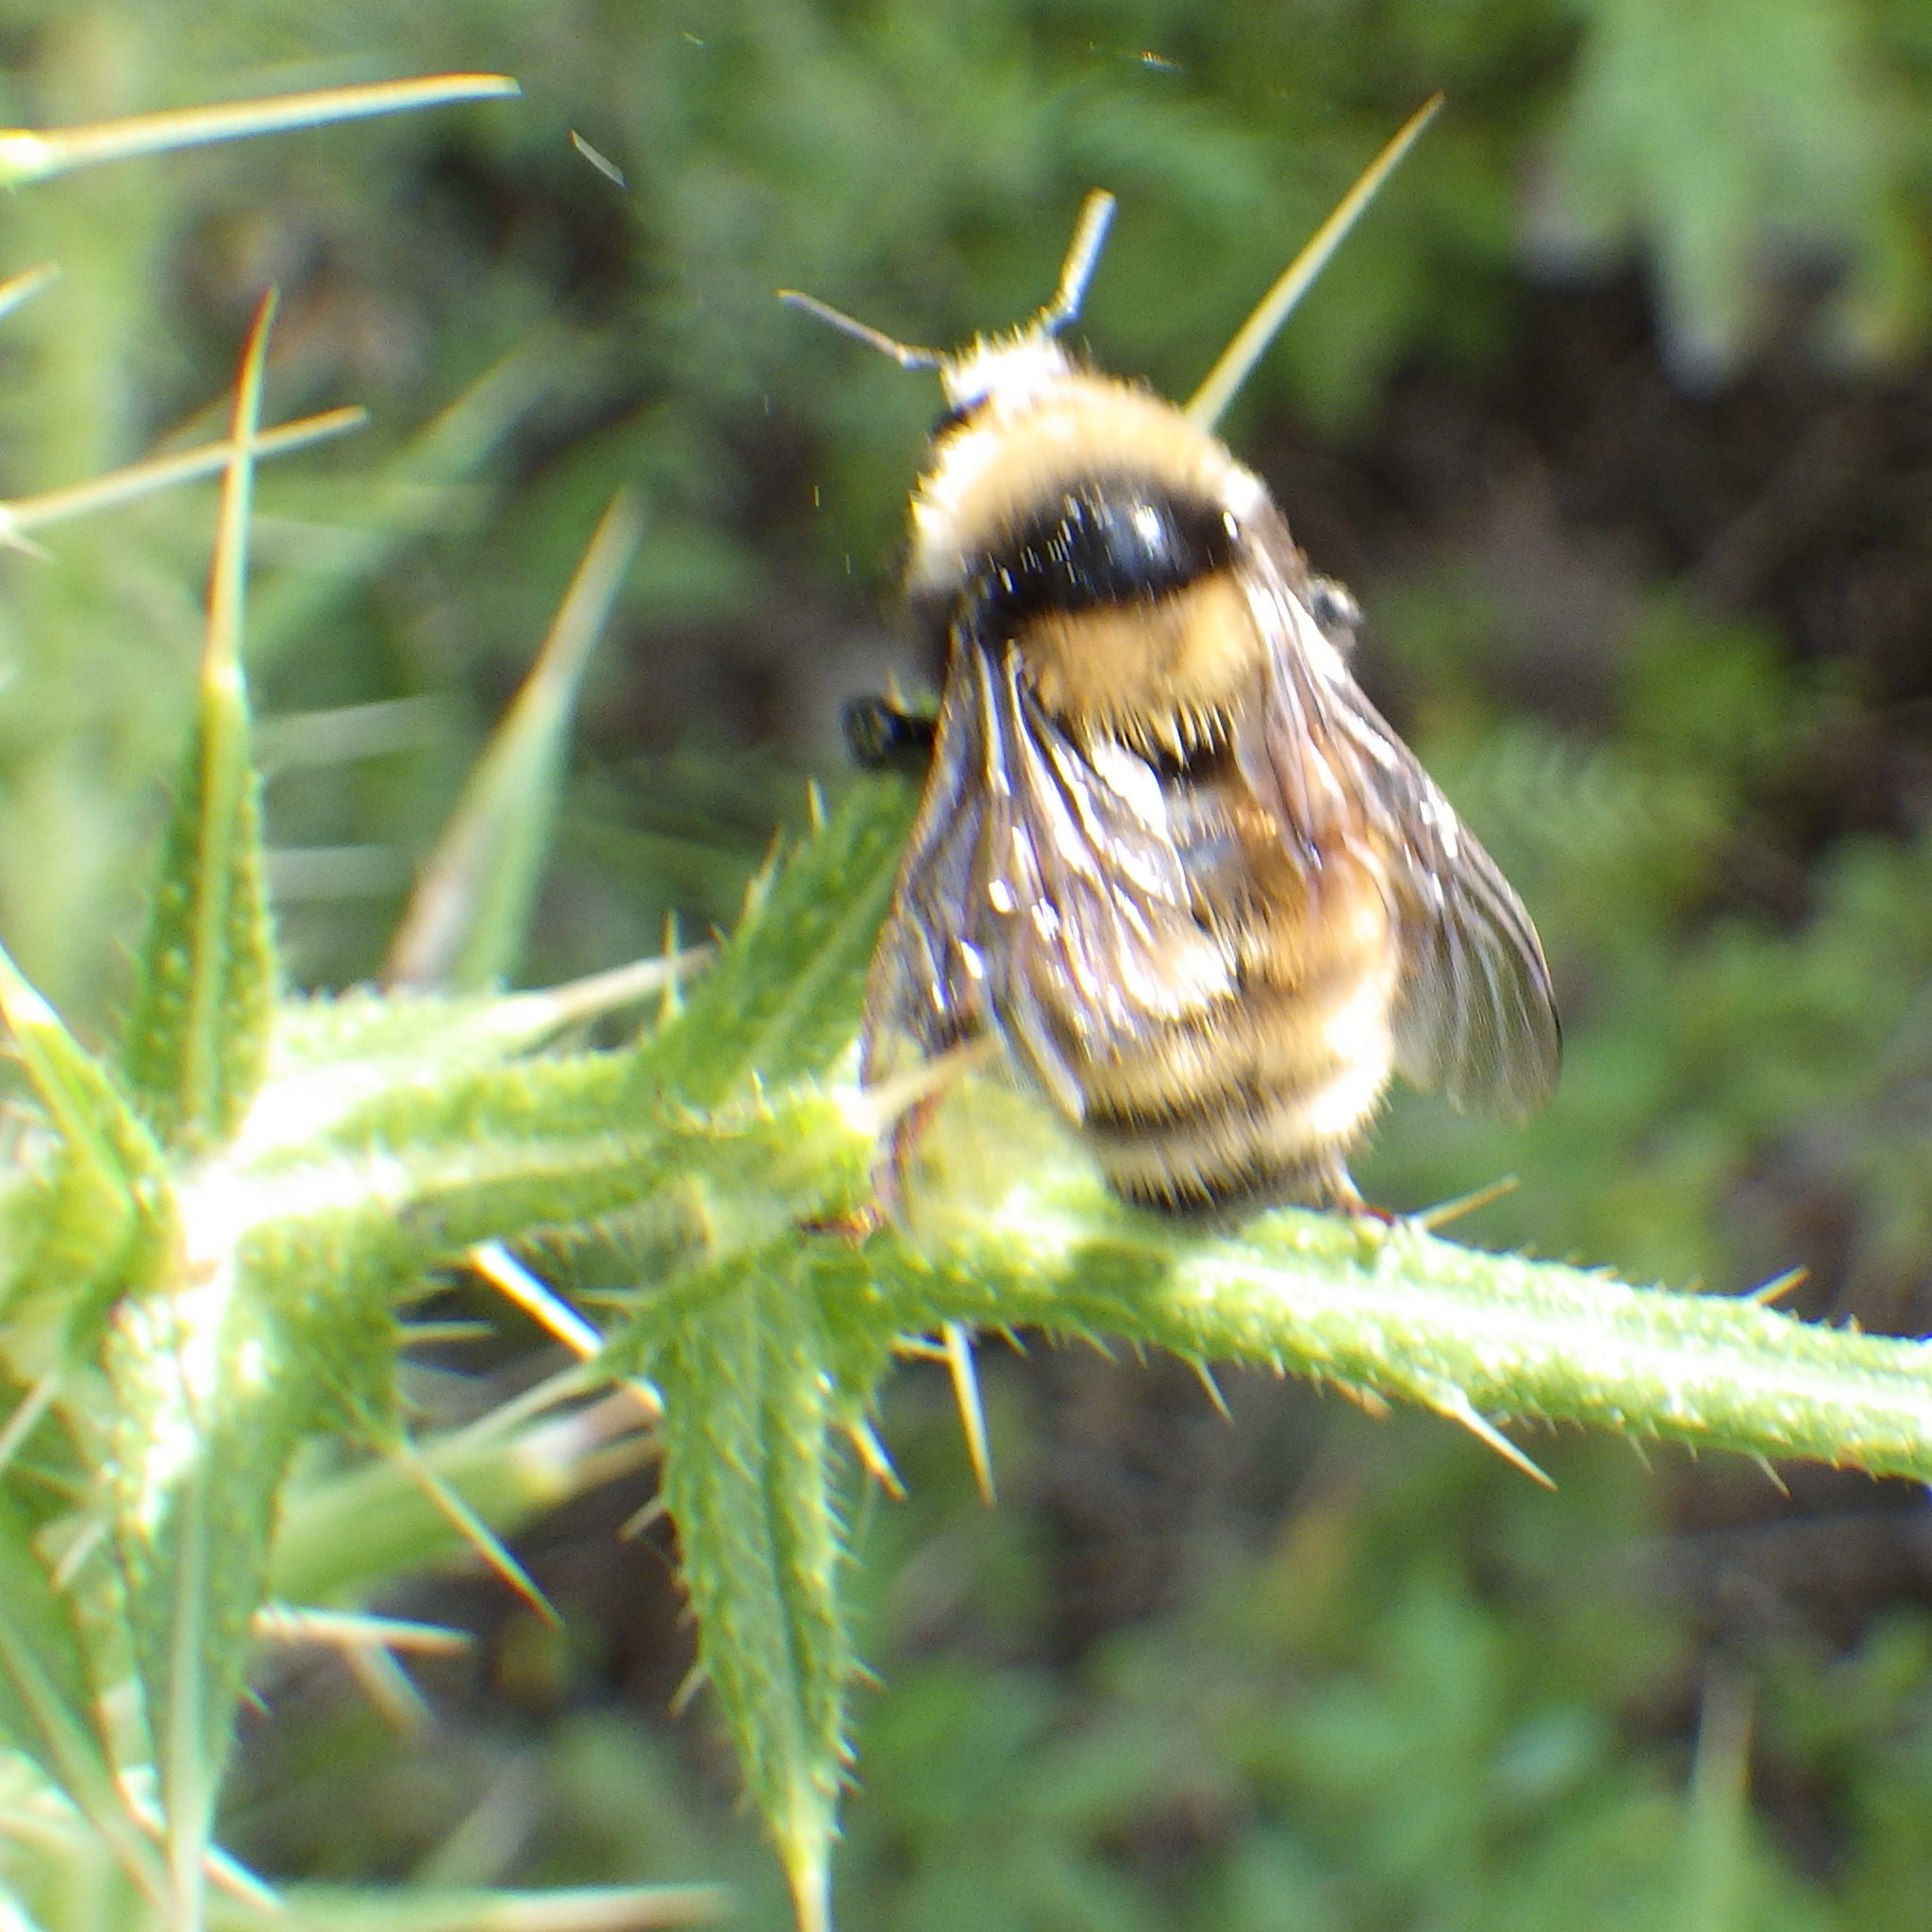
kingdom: Animalia
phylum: Arthropoda
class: Insecta
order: Hymenoptera
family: Apidae
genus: Bombus
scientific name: Bombus borealis
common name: Northern amber bumble bee
